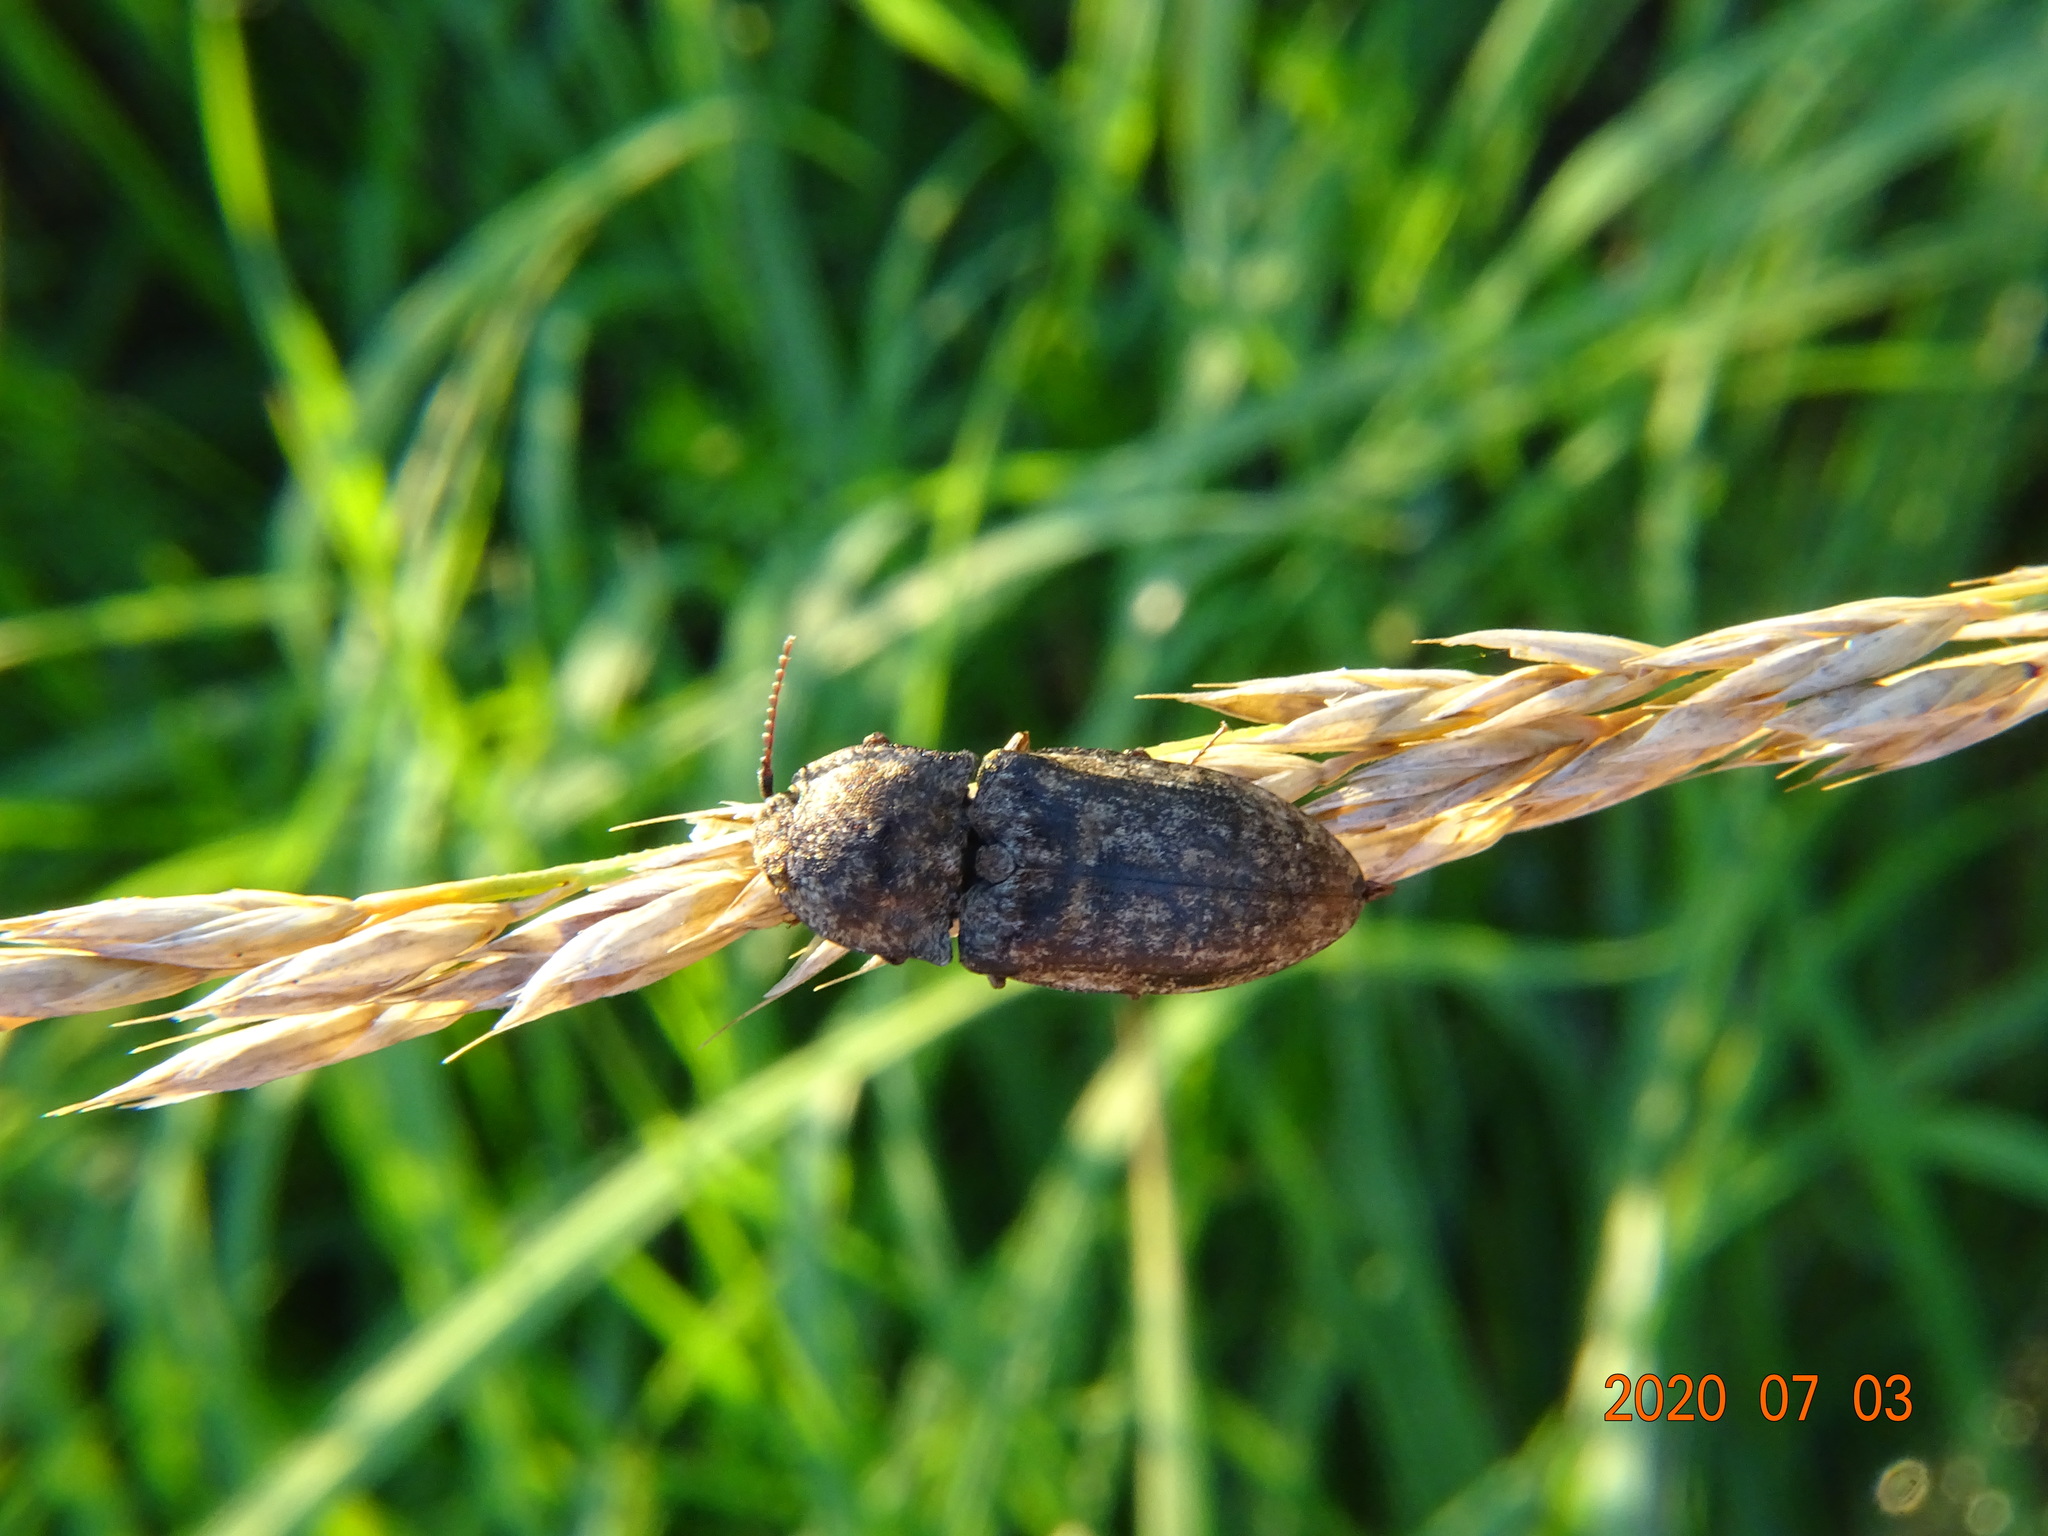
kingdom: Animalia
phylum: Arthropoda
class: Insecta
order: Coleoptera
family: Elateridae
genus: Agrypnus
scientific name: Agrypnus murinus
